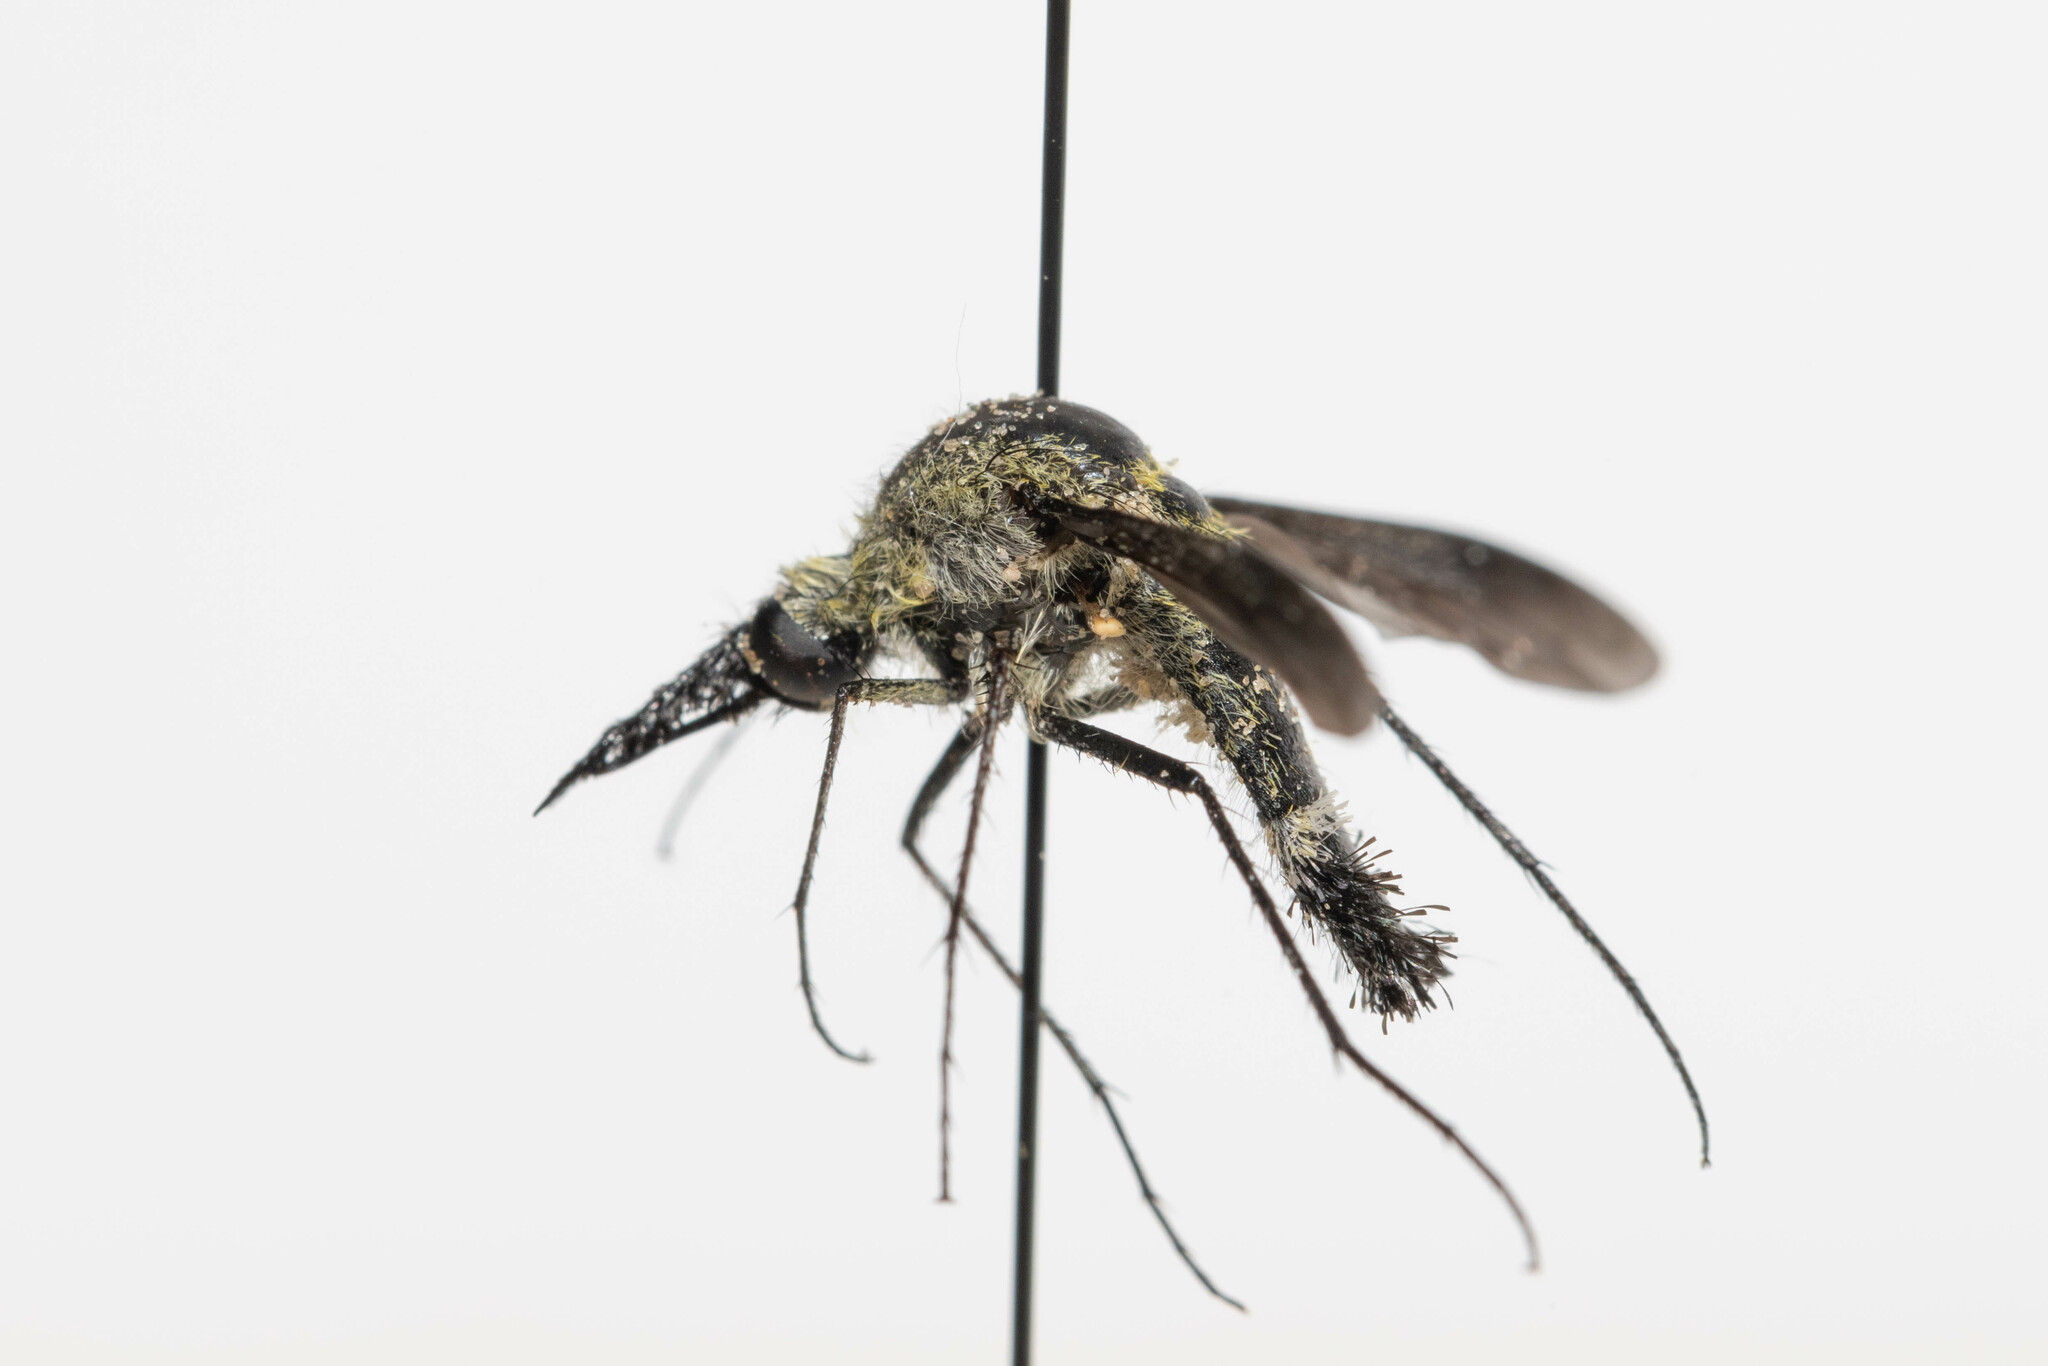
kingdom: Animalia
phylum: Arthropoda
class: Insecta
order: Diptera
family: Bombyliidae
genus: Lepidophora
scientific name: Lepidophora lutea
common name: Hunchback bee fly
